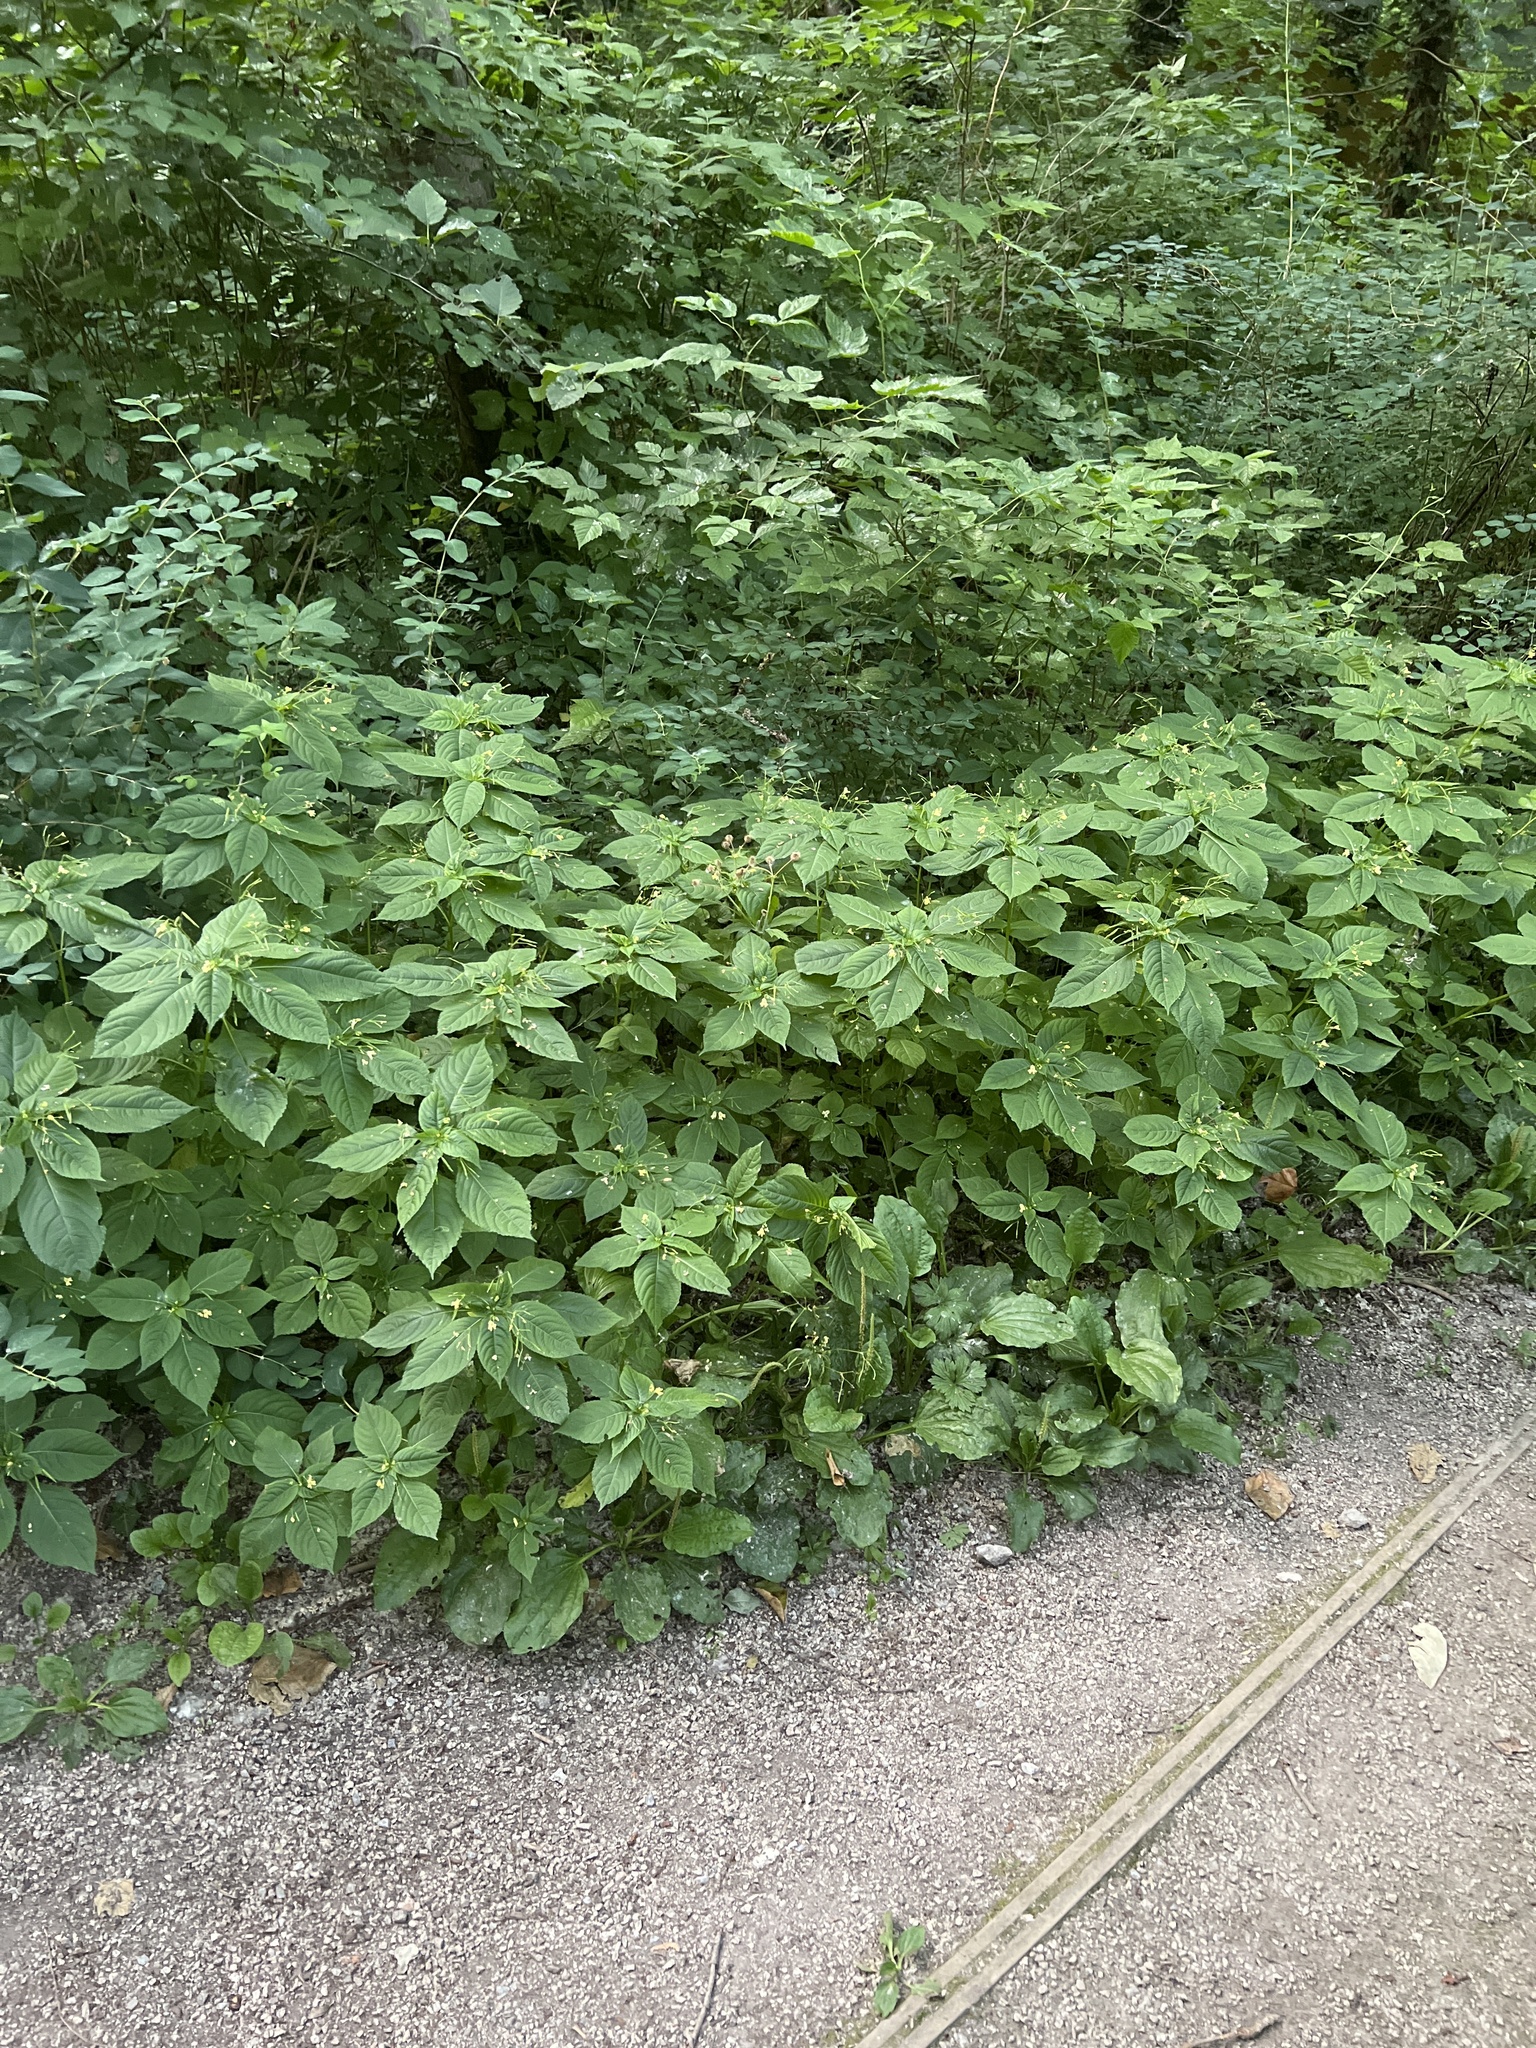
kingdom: Plantae
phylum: Tracheophyta
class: Magnoliopsida
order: Ericales
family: Balsaminaceae
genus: Impatiens
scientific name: Impatiens parviflora
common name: Small balsam
